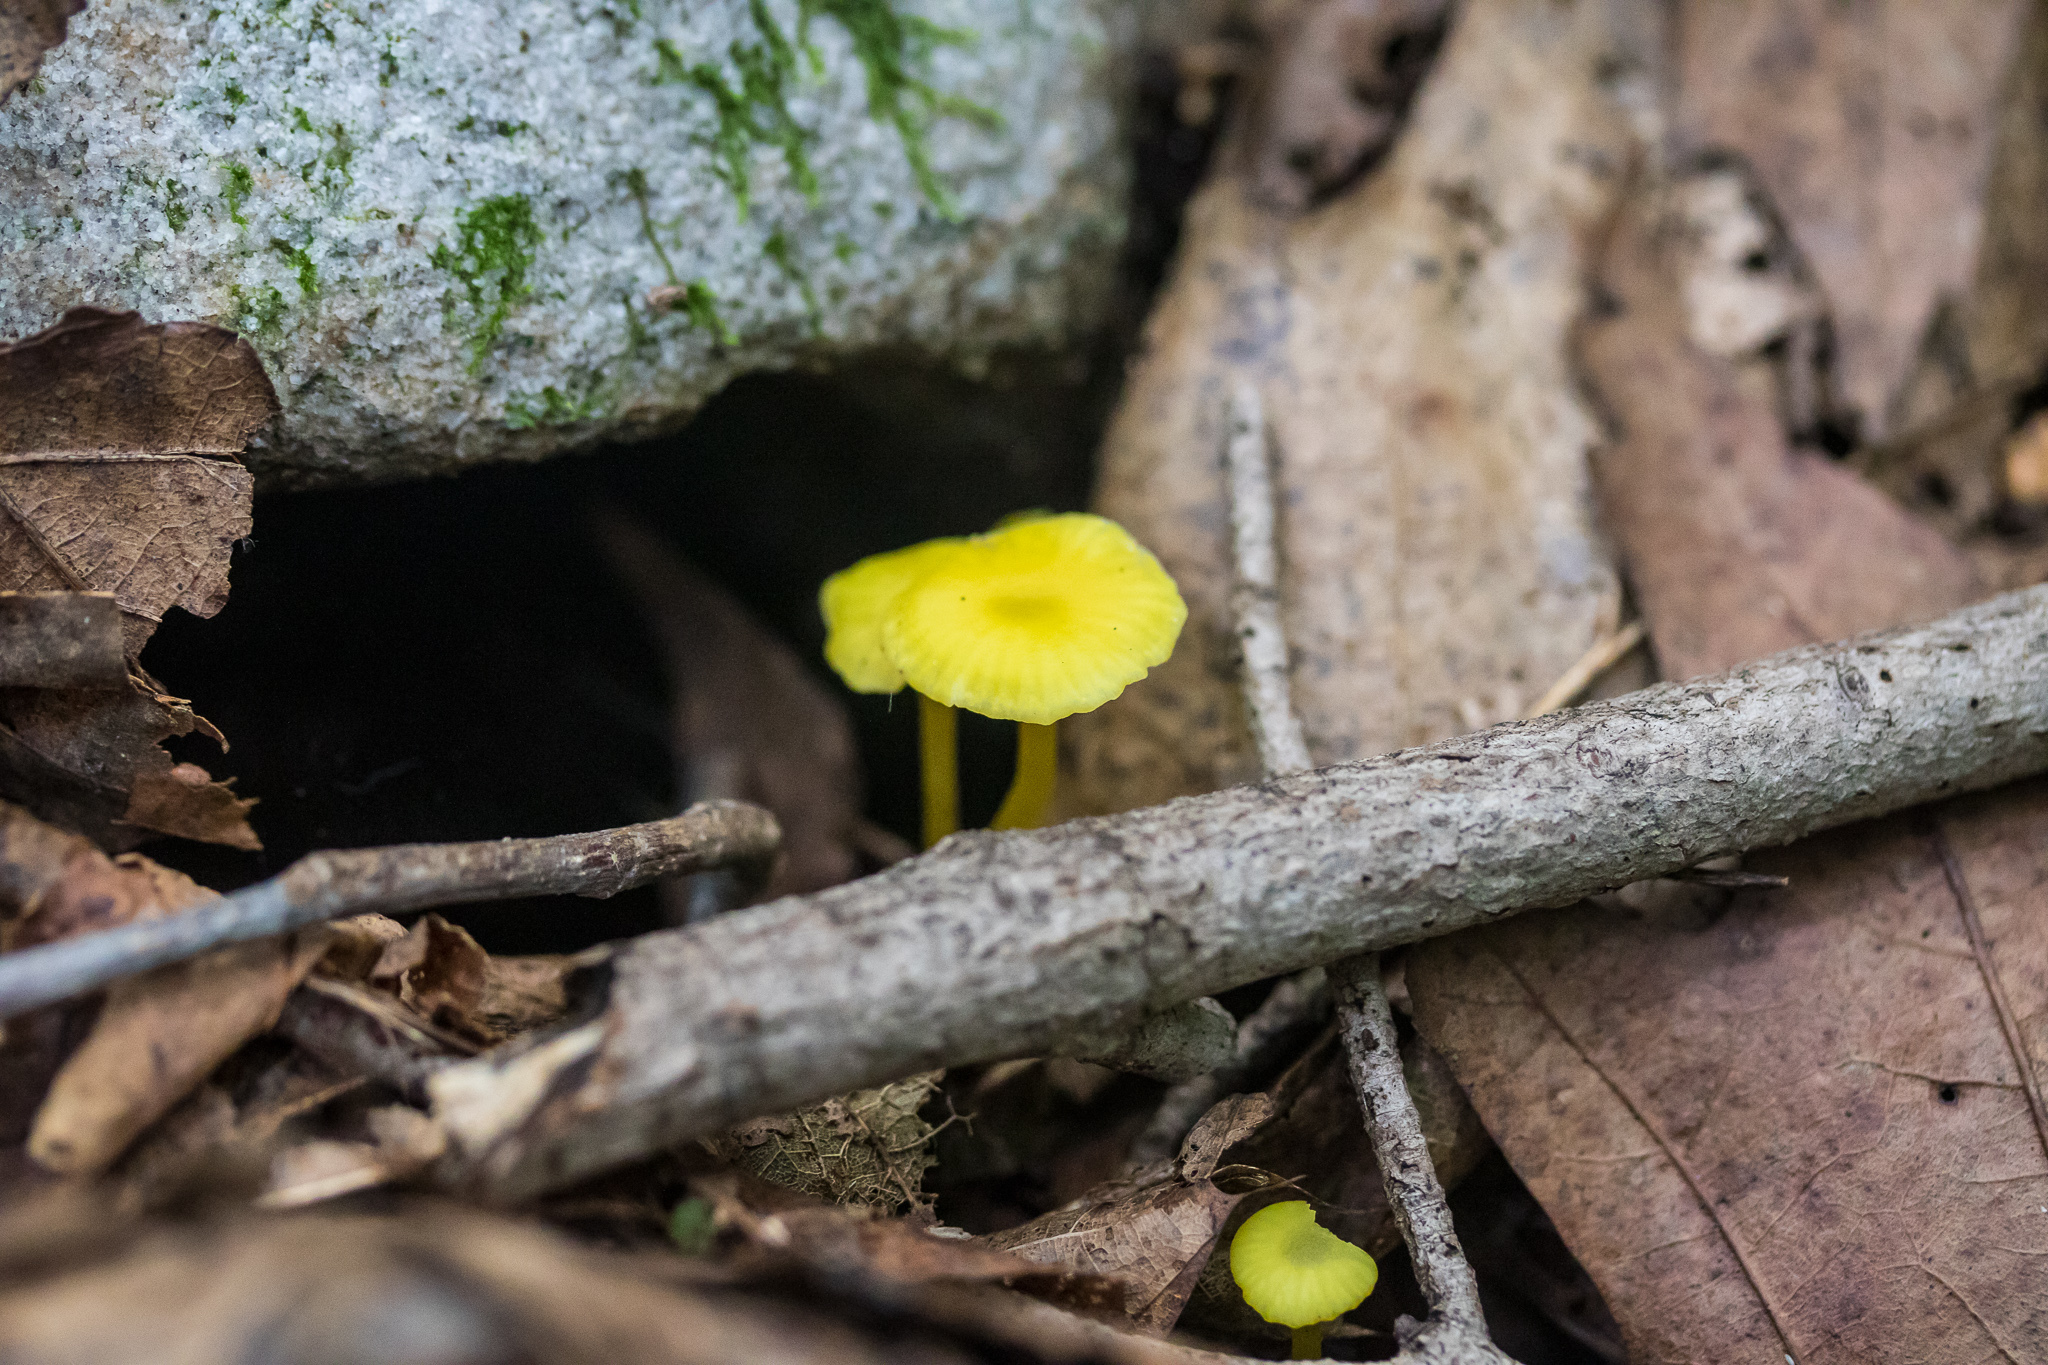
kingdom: Fungi
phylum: Basidiomycota
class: Agaricomycetes
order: Agaricales
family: Hygrophoraceae
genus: Gloioxanthomyces
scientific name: Gloioxanthomyces nitidus
